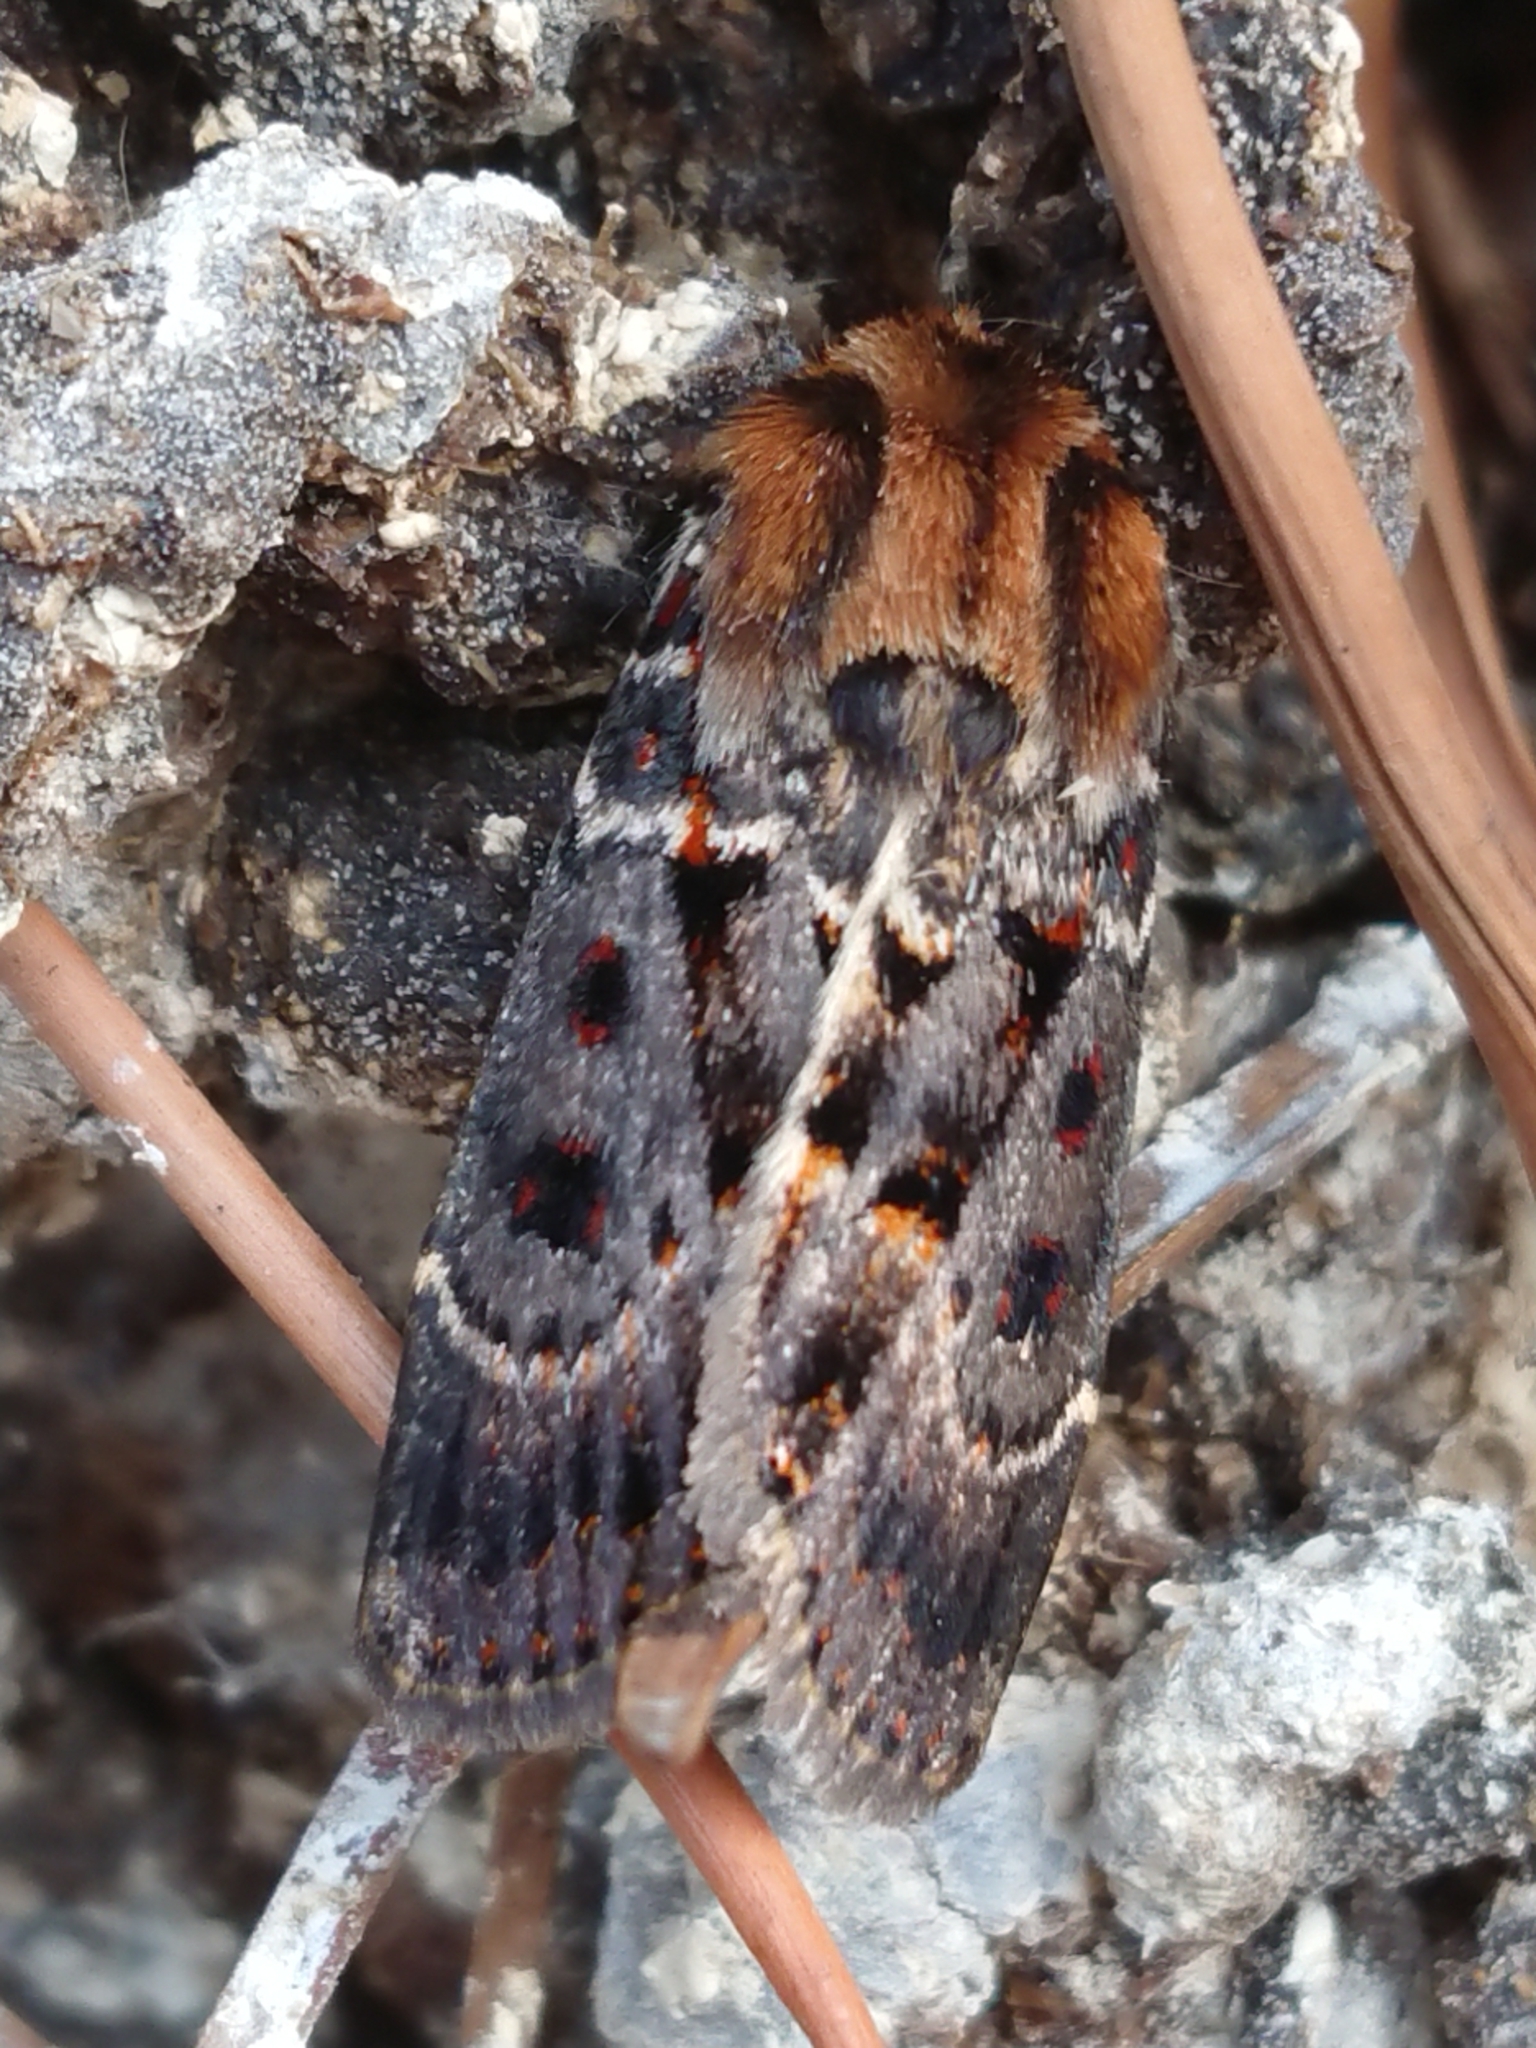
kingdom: Animalia
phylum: Arthropoda
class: Insecta
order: Lepidoptera
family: Noctuidae
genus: Proteuxoa
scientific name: Proteuxoa sanguinipuncta
